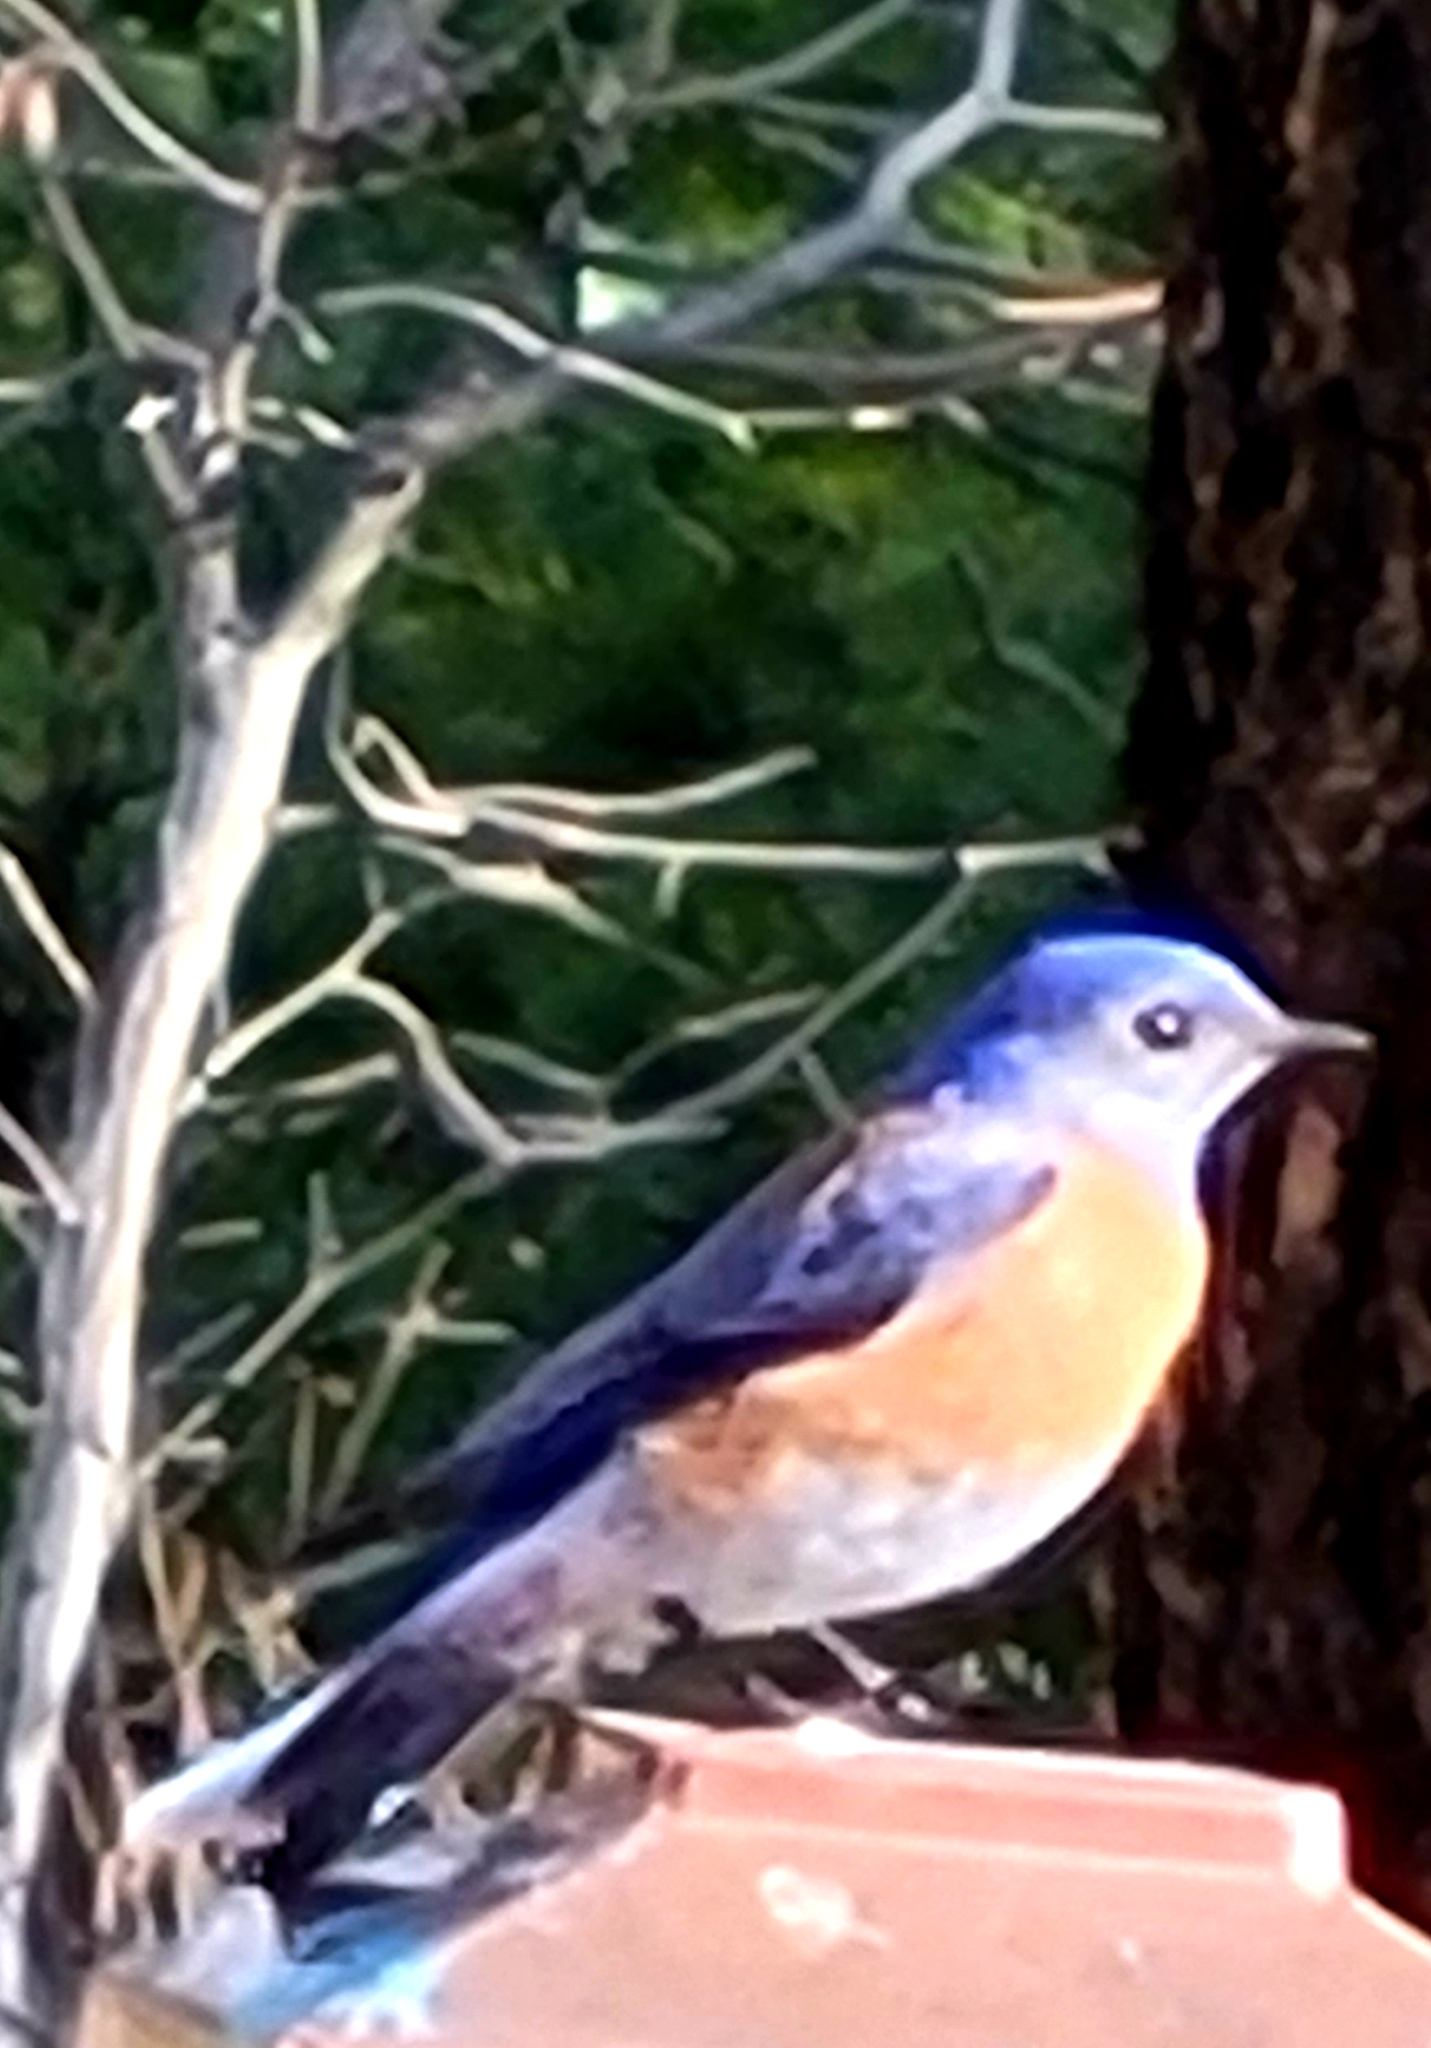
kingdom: Animalia
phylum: Chordata
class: Aves
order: Passeriformes
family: Turdidae
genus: Sialia
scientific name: Sialia mexicana
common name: Western bluebird
